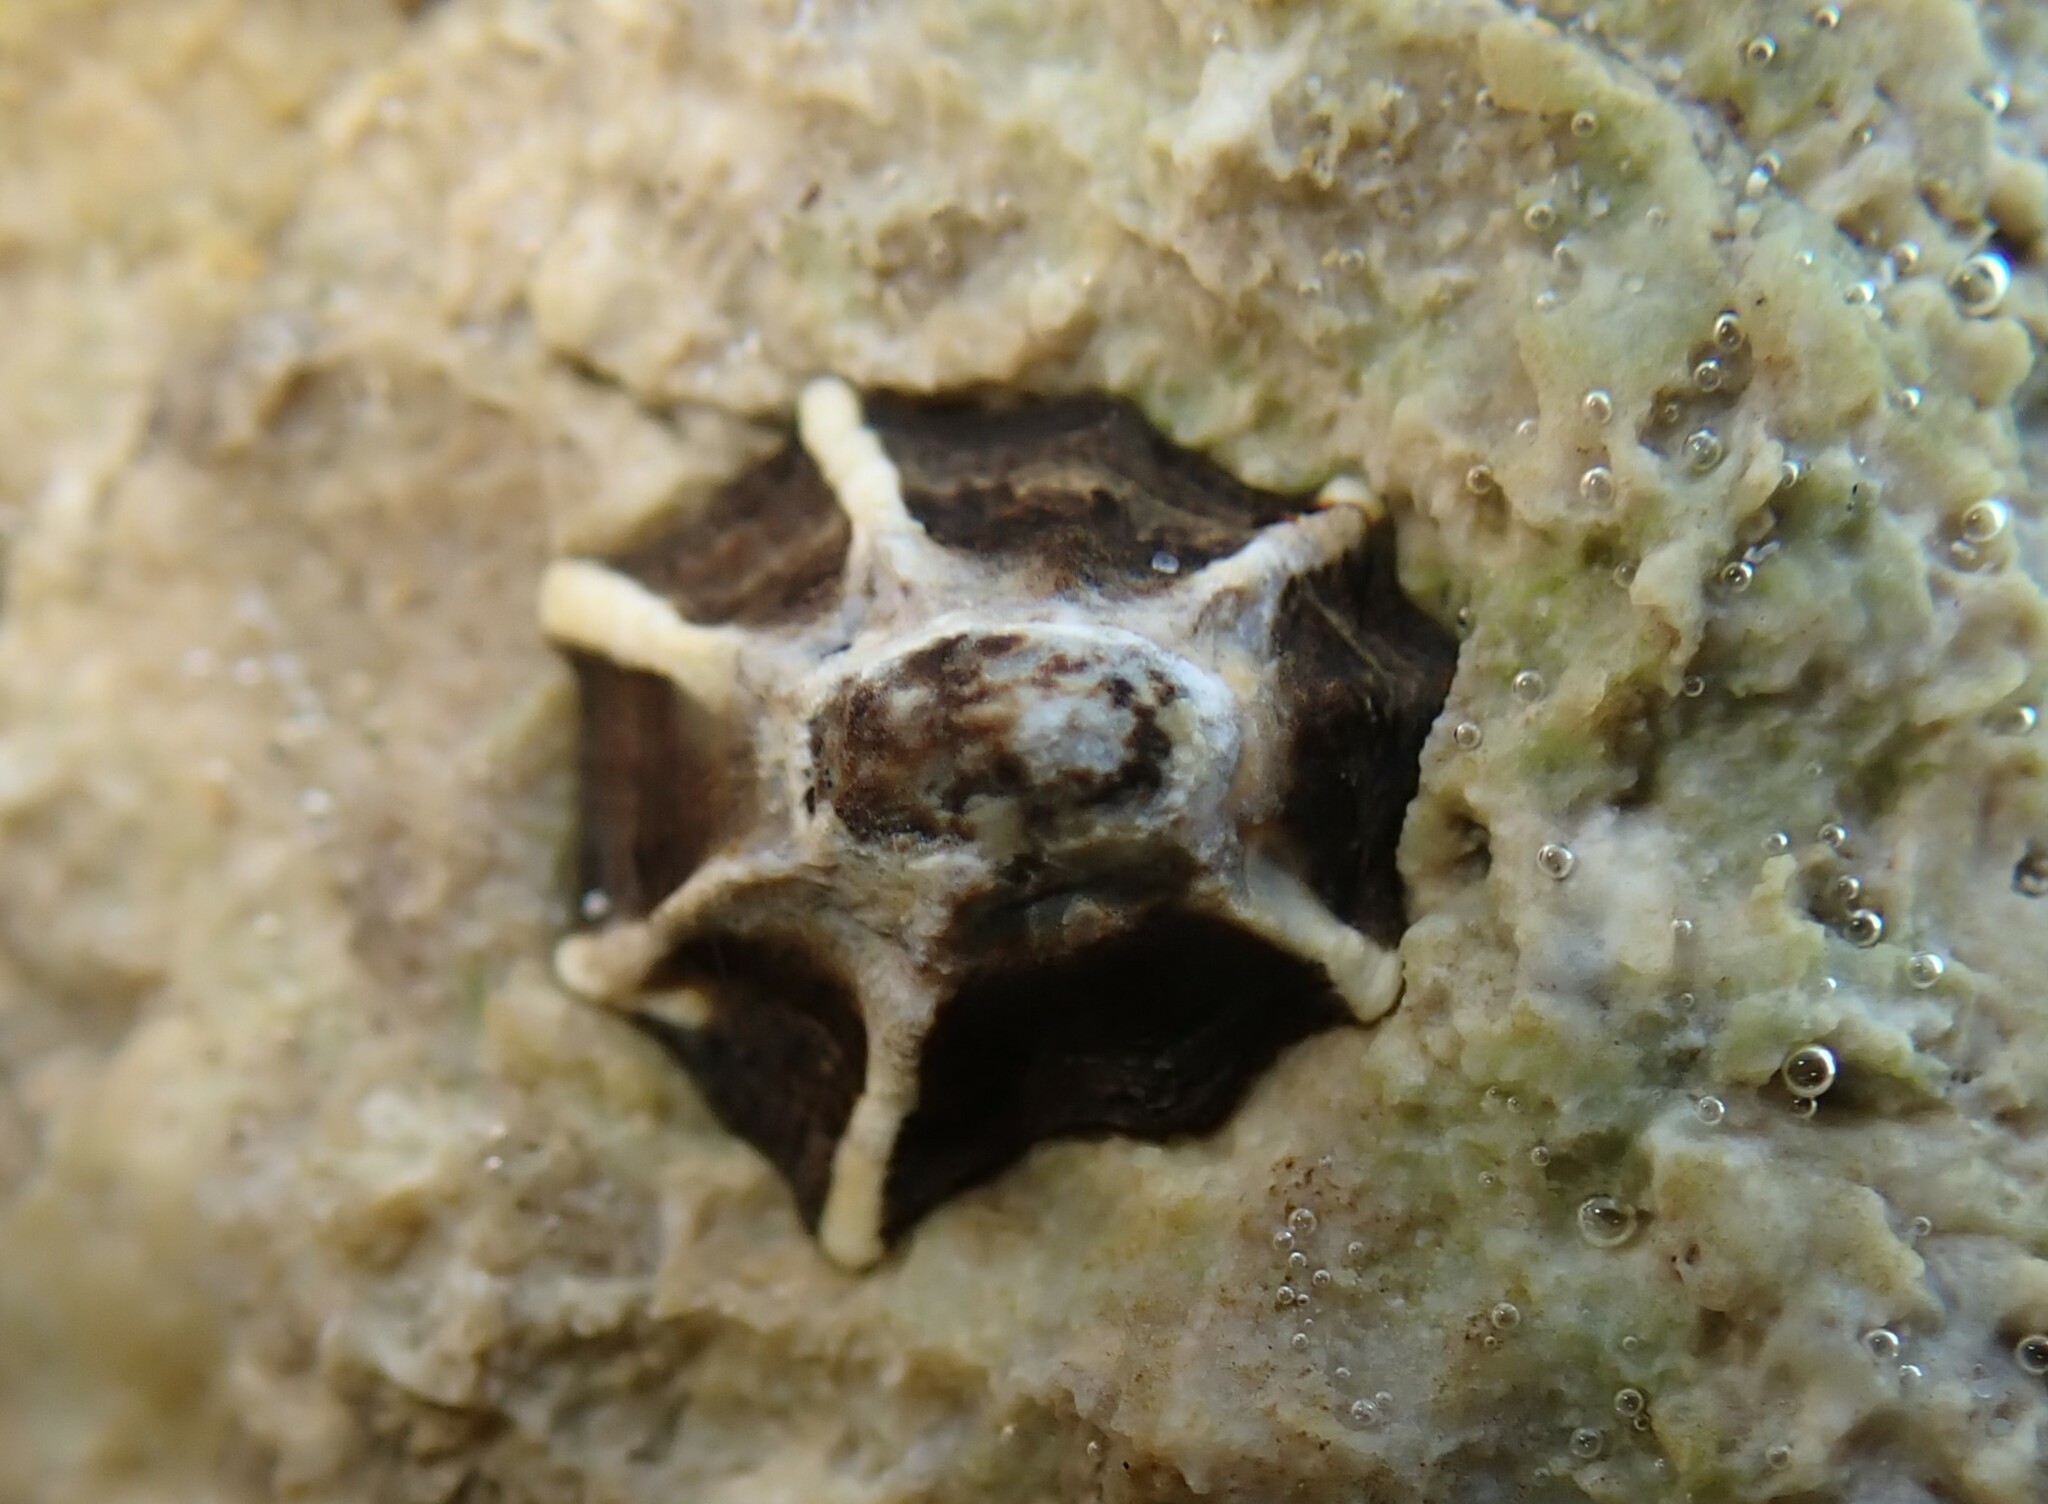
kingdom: Animalia
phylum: Mollusca
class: Gastropoda
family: Lottiidae
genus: Patelloida
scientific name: Patelloida latistrigata
